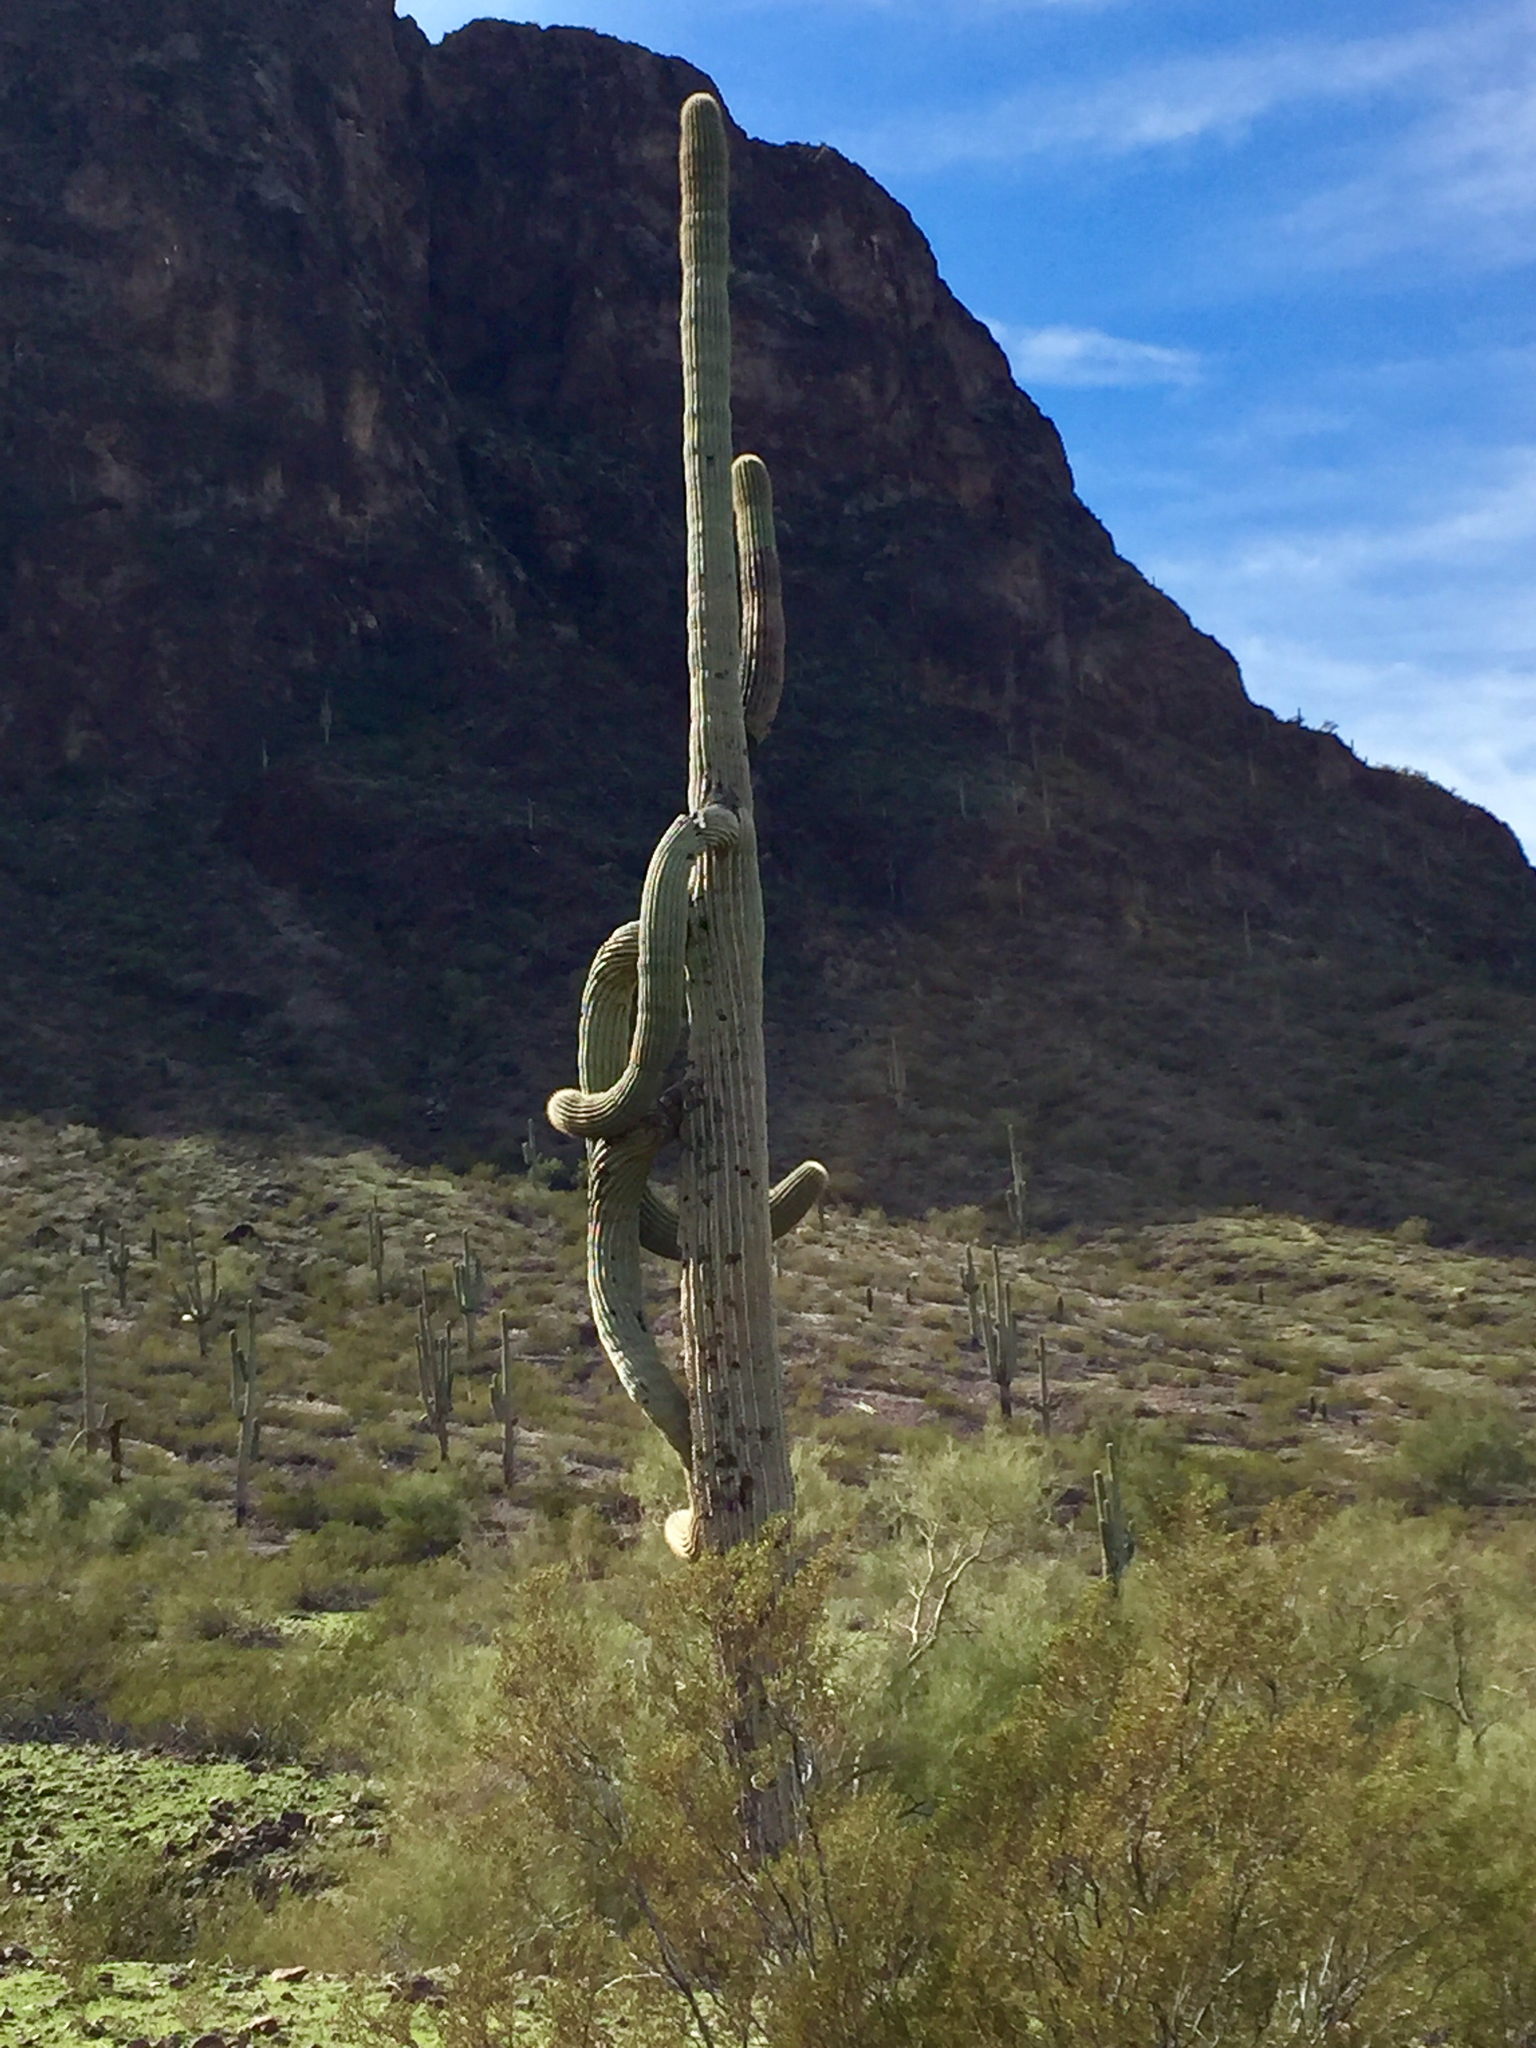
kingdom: Plantae
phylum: Tracheophyta
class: Magnoliopsida
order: Caryophyllales
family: Cactaceae
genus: Carnegiea
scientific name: Carnegiea gigantea
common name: Saguaro
